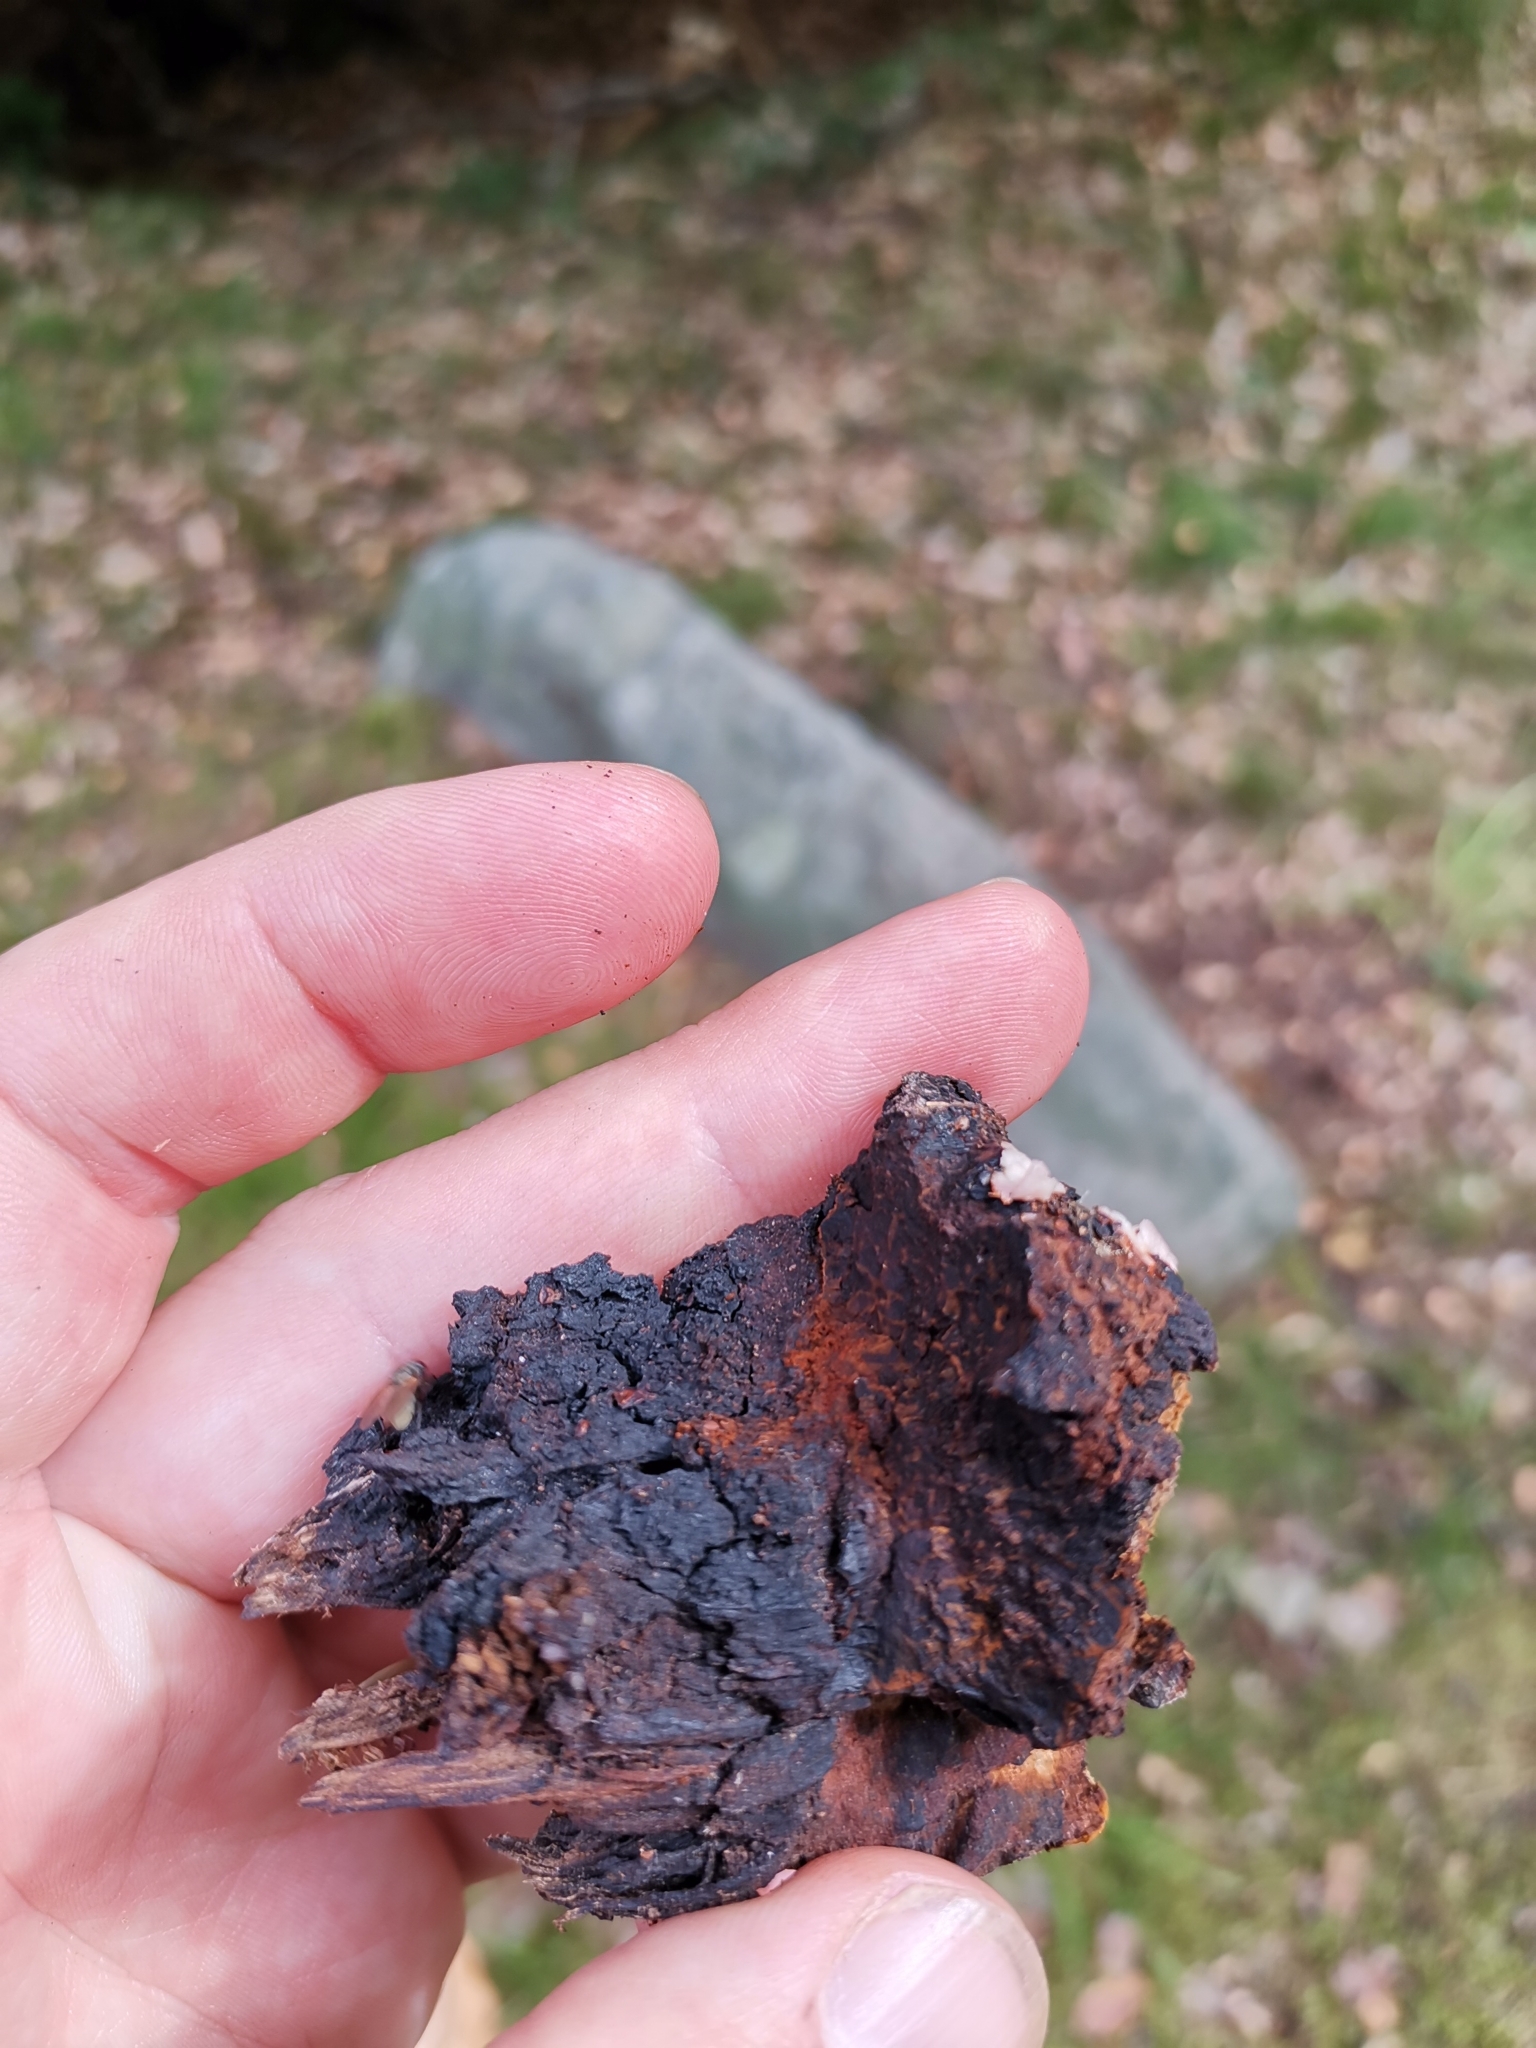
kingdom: Fungi
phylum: Basidiomycota
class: Agaricomycetes
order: Hymenochaetales
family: Hymenochaetaceae
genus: Inonotus
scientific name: Inonotus obliquus
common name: Chaga
